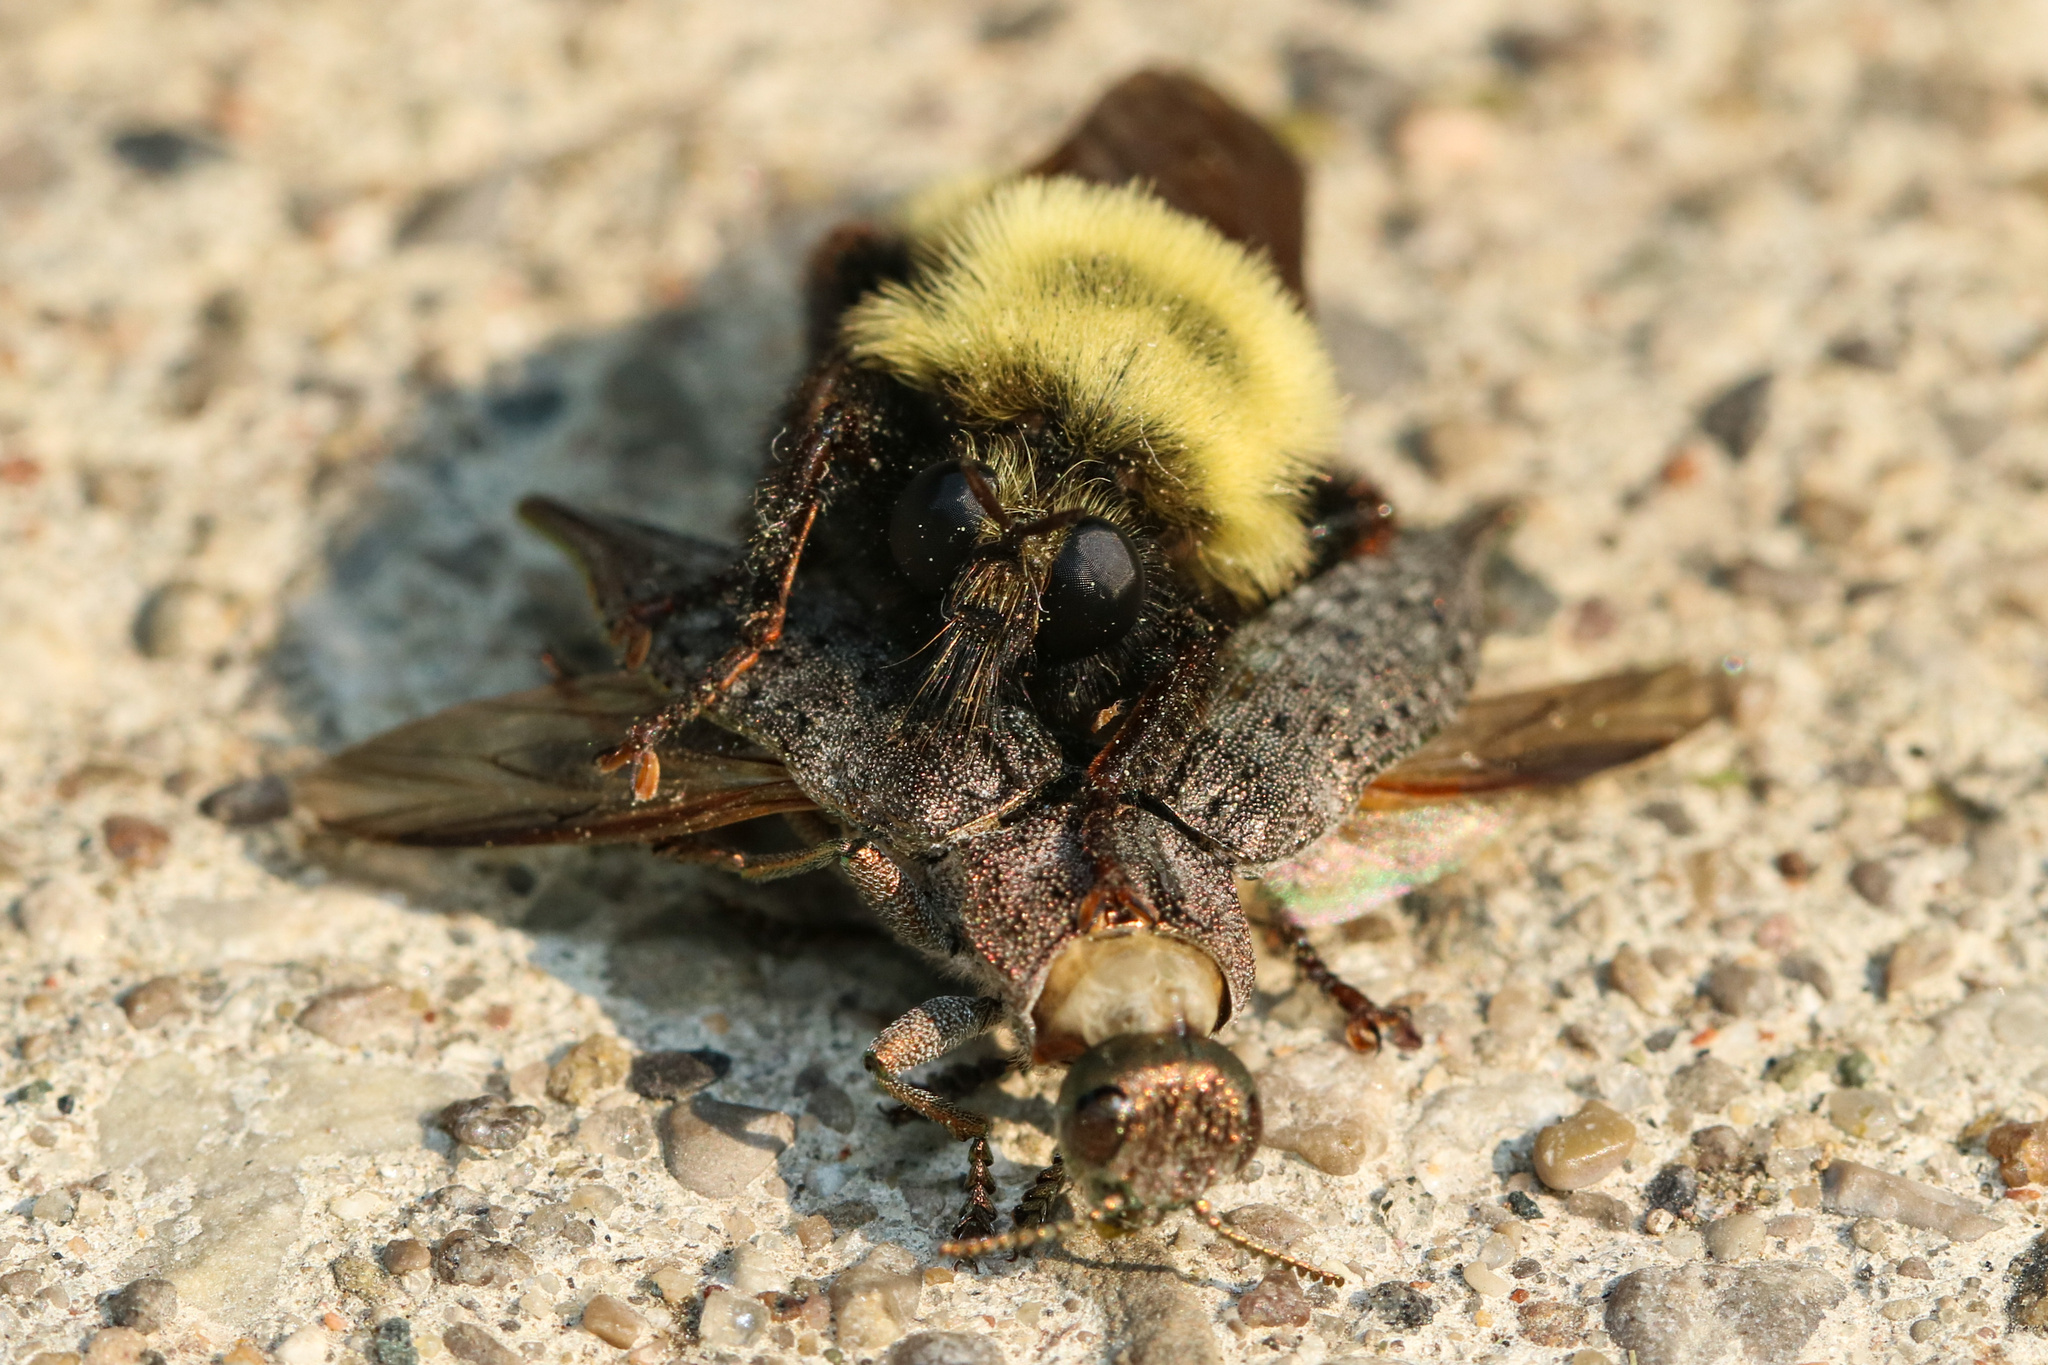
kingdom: Animalia
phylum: Arthropoda
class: Insecta
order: Diptera
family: Asilidae
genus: Laphria
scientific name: Laphria thoracica
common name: Bumble bee mimic robber fly
